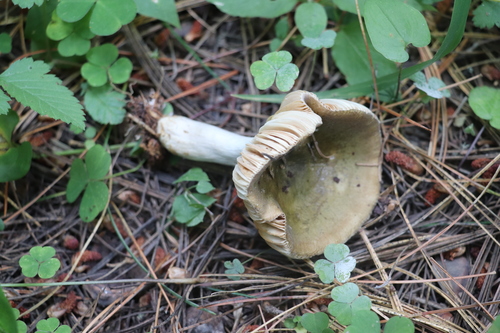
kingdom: Fungi
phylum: Basidiomycota
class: Agaricomycetes
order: Russulales
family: Russulaceae
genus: Russula
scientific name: Russula vesca
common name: Bare-toothed russula
